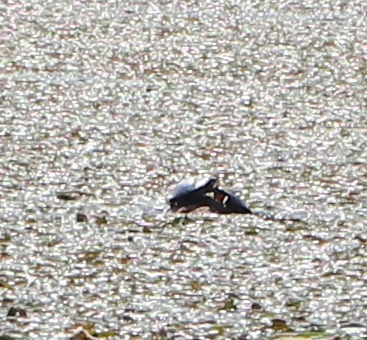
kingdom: Animalia
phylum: Chordata
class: Testudines
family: Emydidae
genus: Chrysemys
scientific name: Chrysemys picta
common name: Painted turtle
